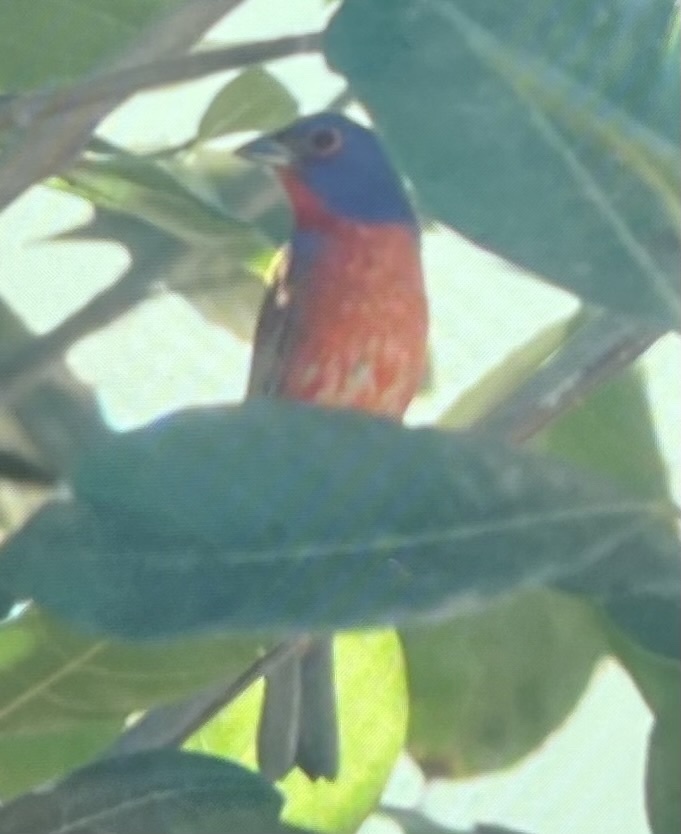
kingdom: Animalia
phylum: Chordata
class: Aves
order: Passeriformes
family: Cardinalidae
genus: Passerina
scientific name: Passerina ciris
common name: Painted bunting
